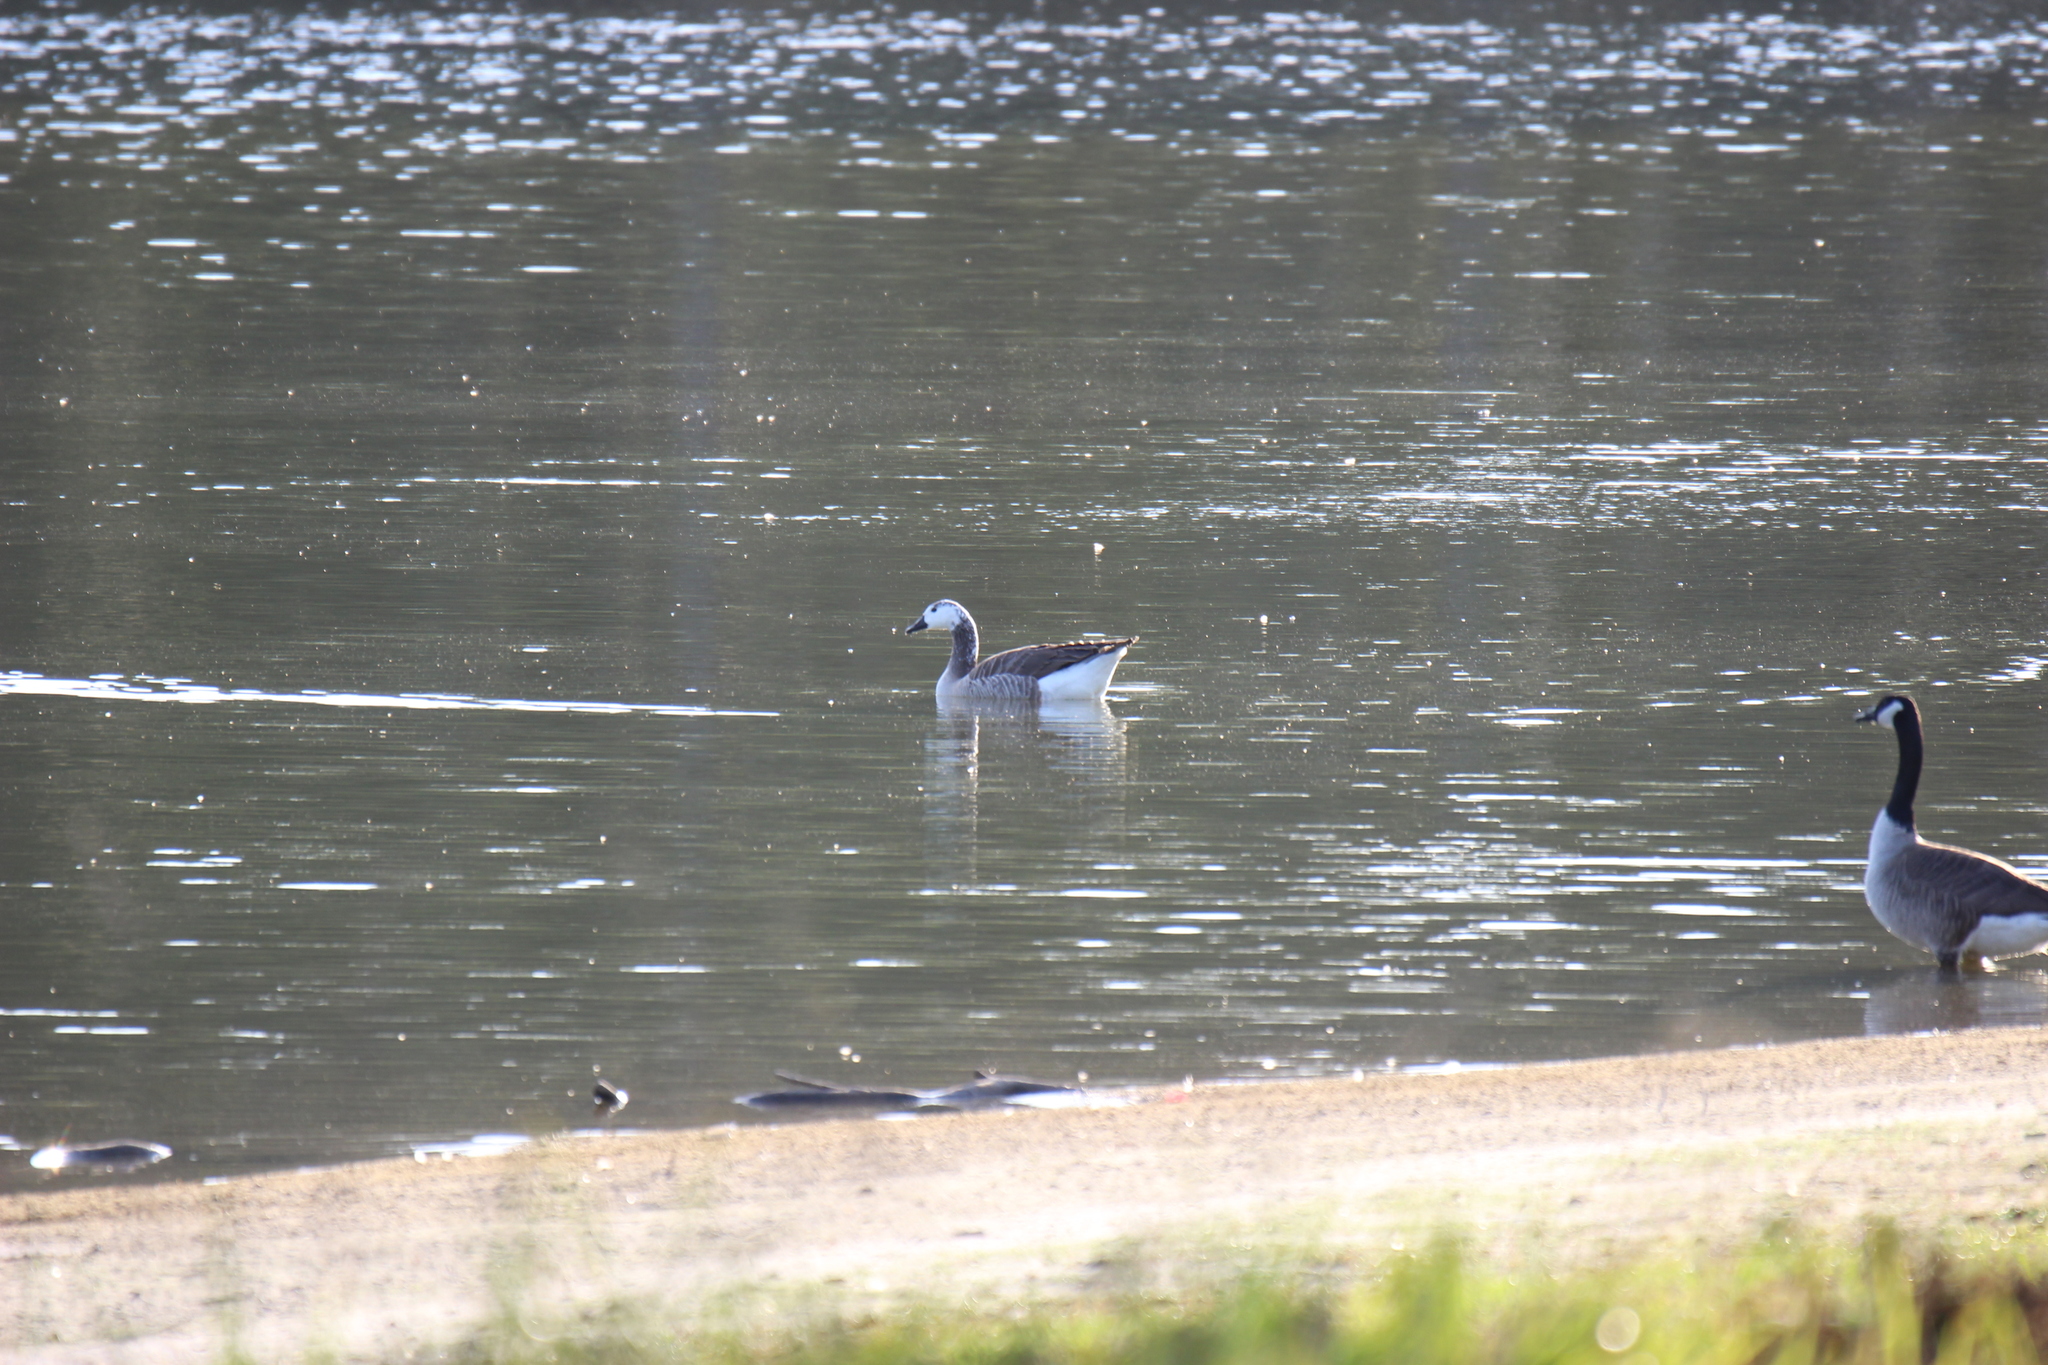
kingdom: Animalia
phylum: Chordata
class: Aves
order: Anseriformes
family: Anatidae
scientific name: Anatidae
